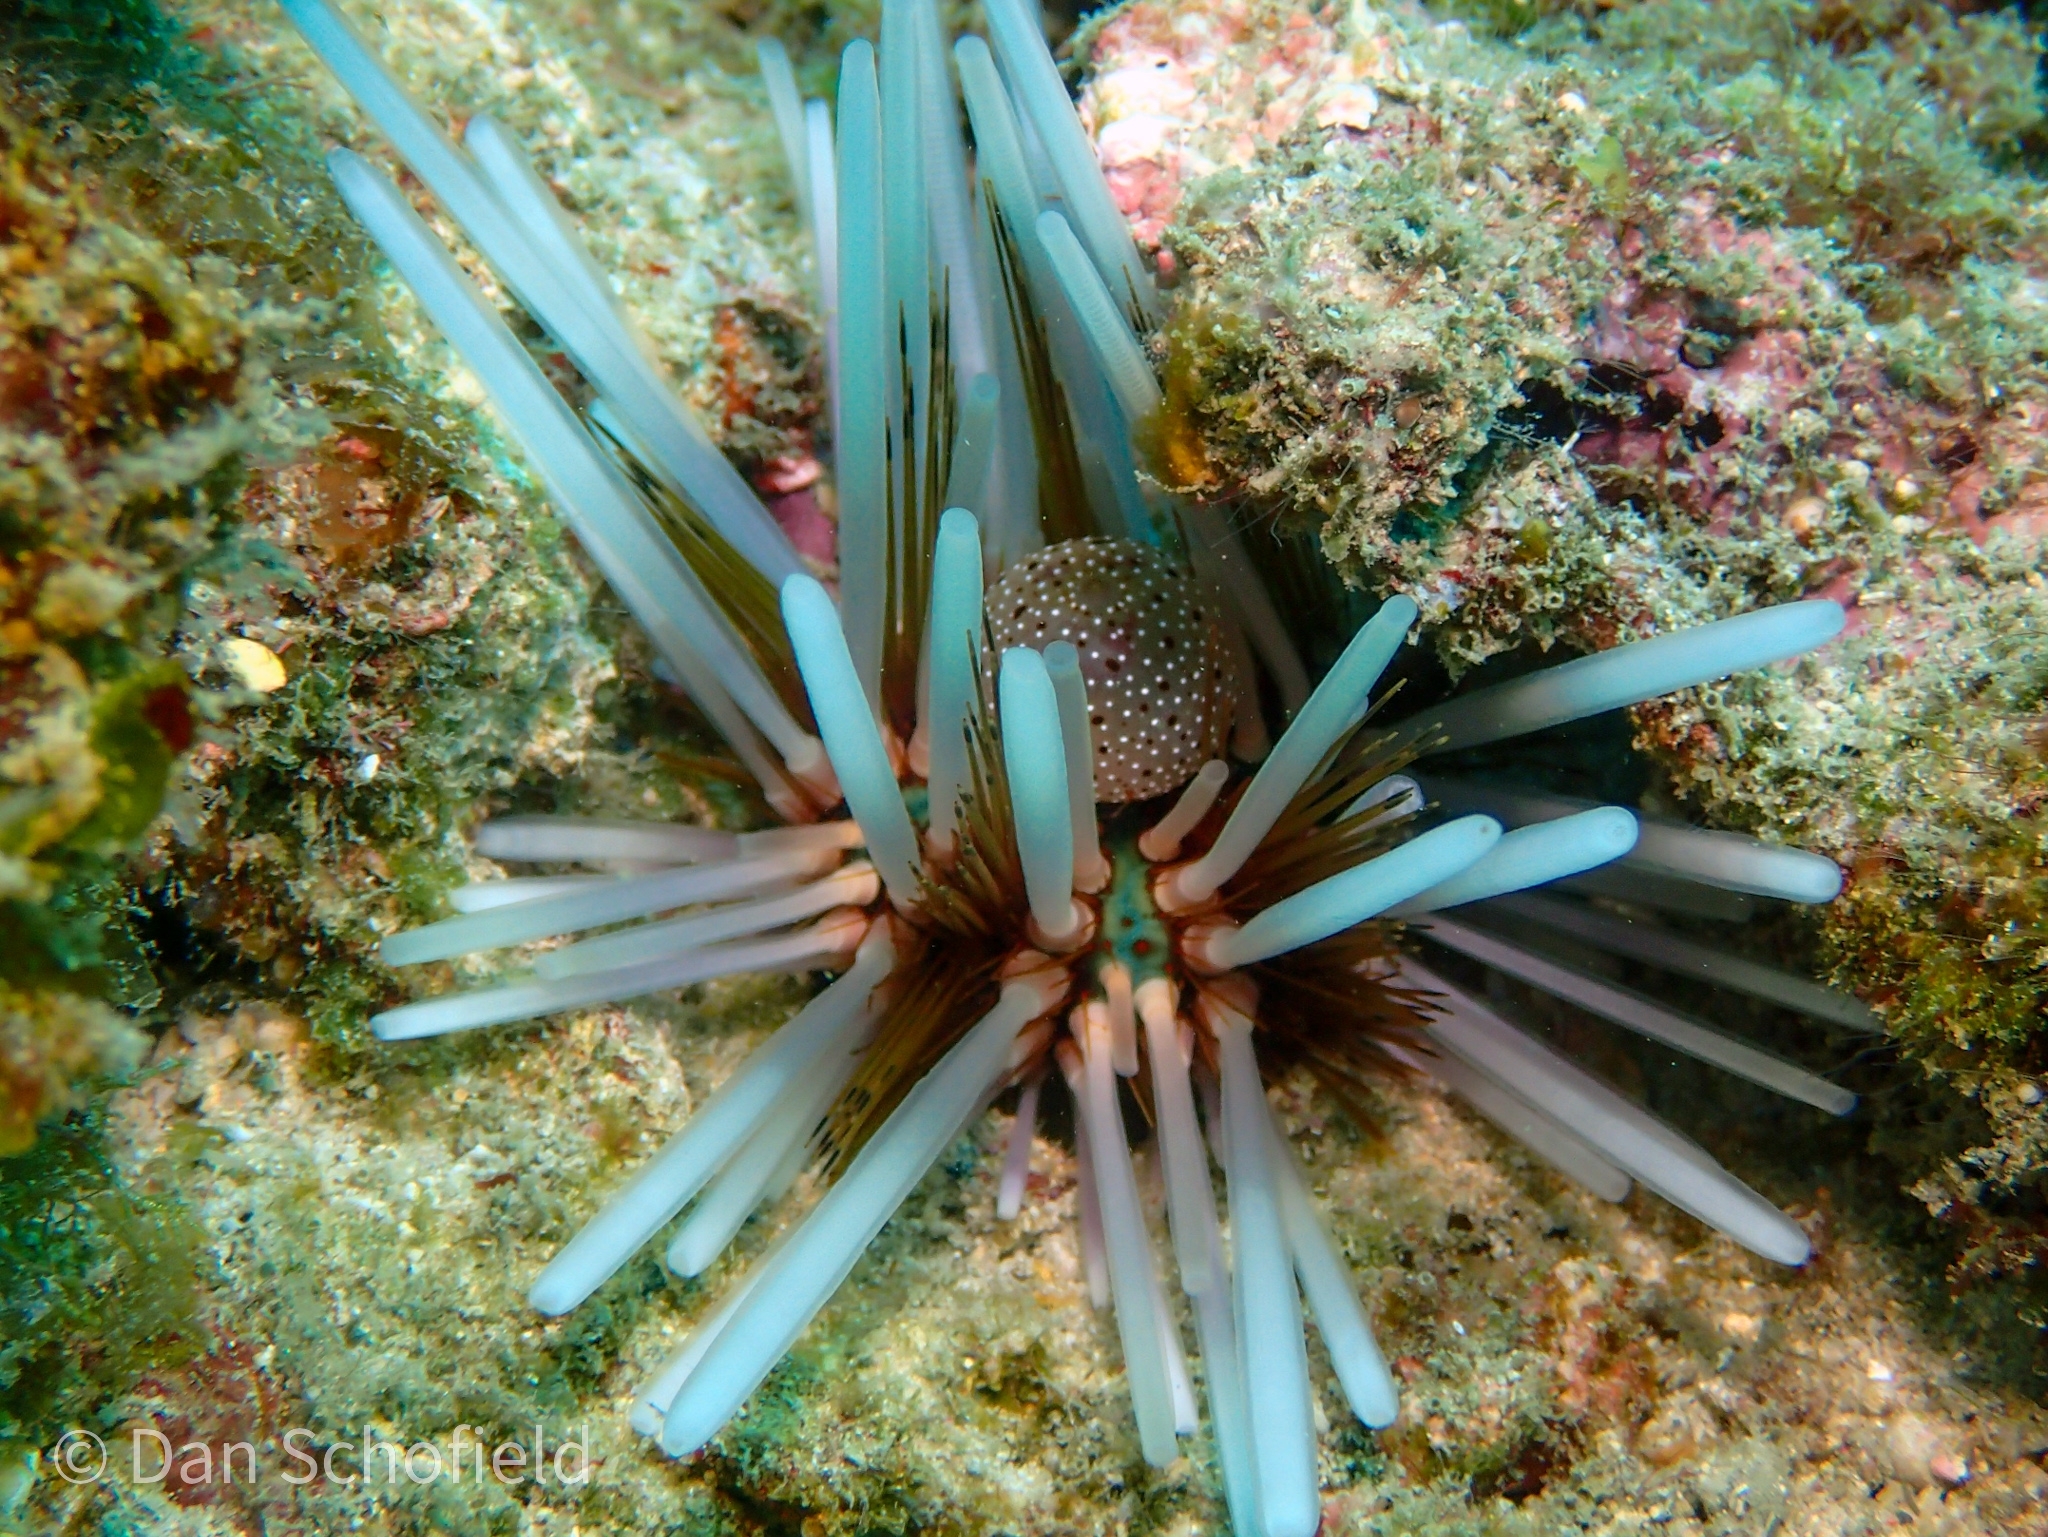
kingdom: Animalia
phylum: Echinodermata
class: Echinoidea
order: Diadematoida
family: Diadematidae
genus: Echinothrix
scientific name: Echinothrix calamaris
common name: Banded sea urchin
